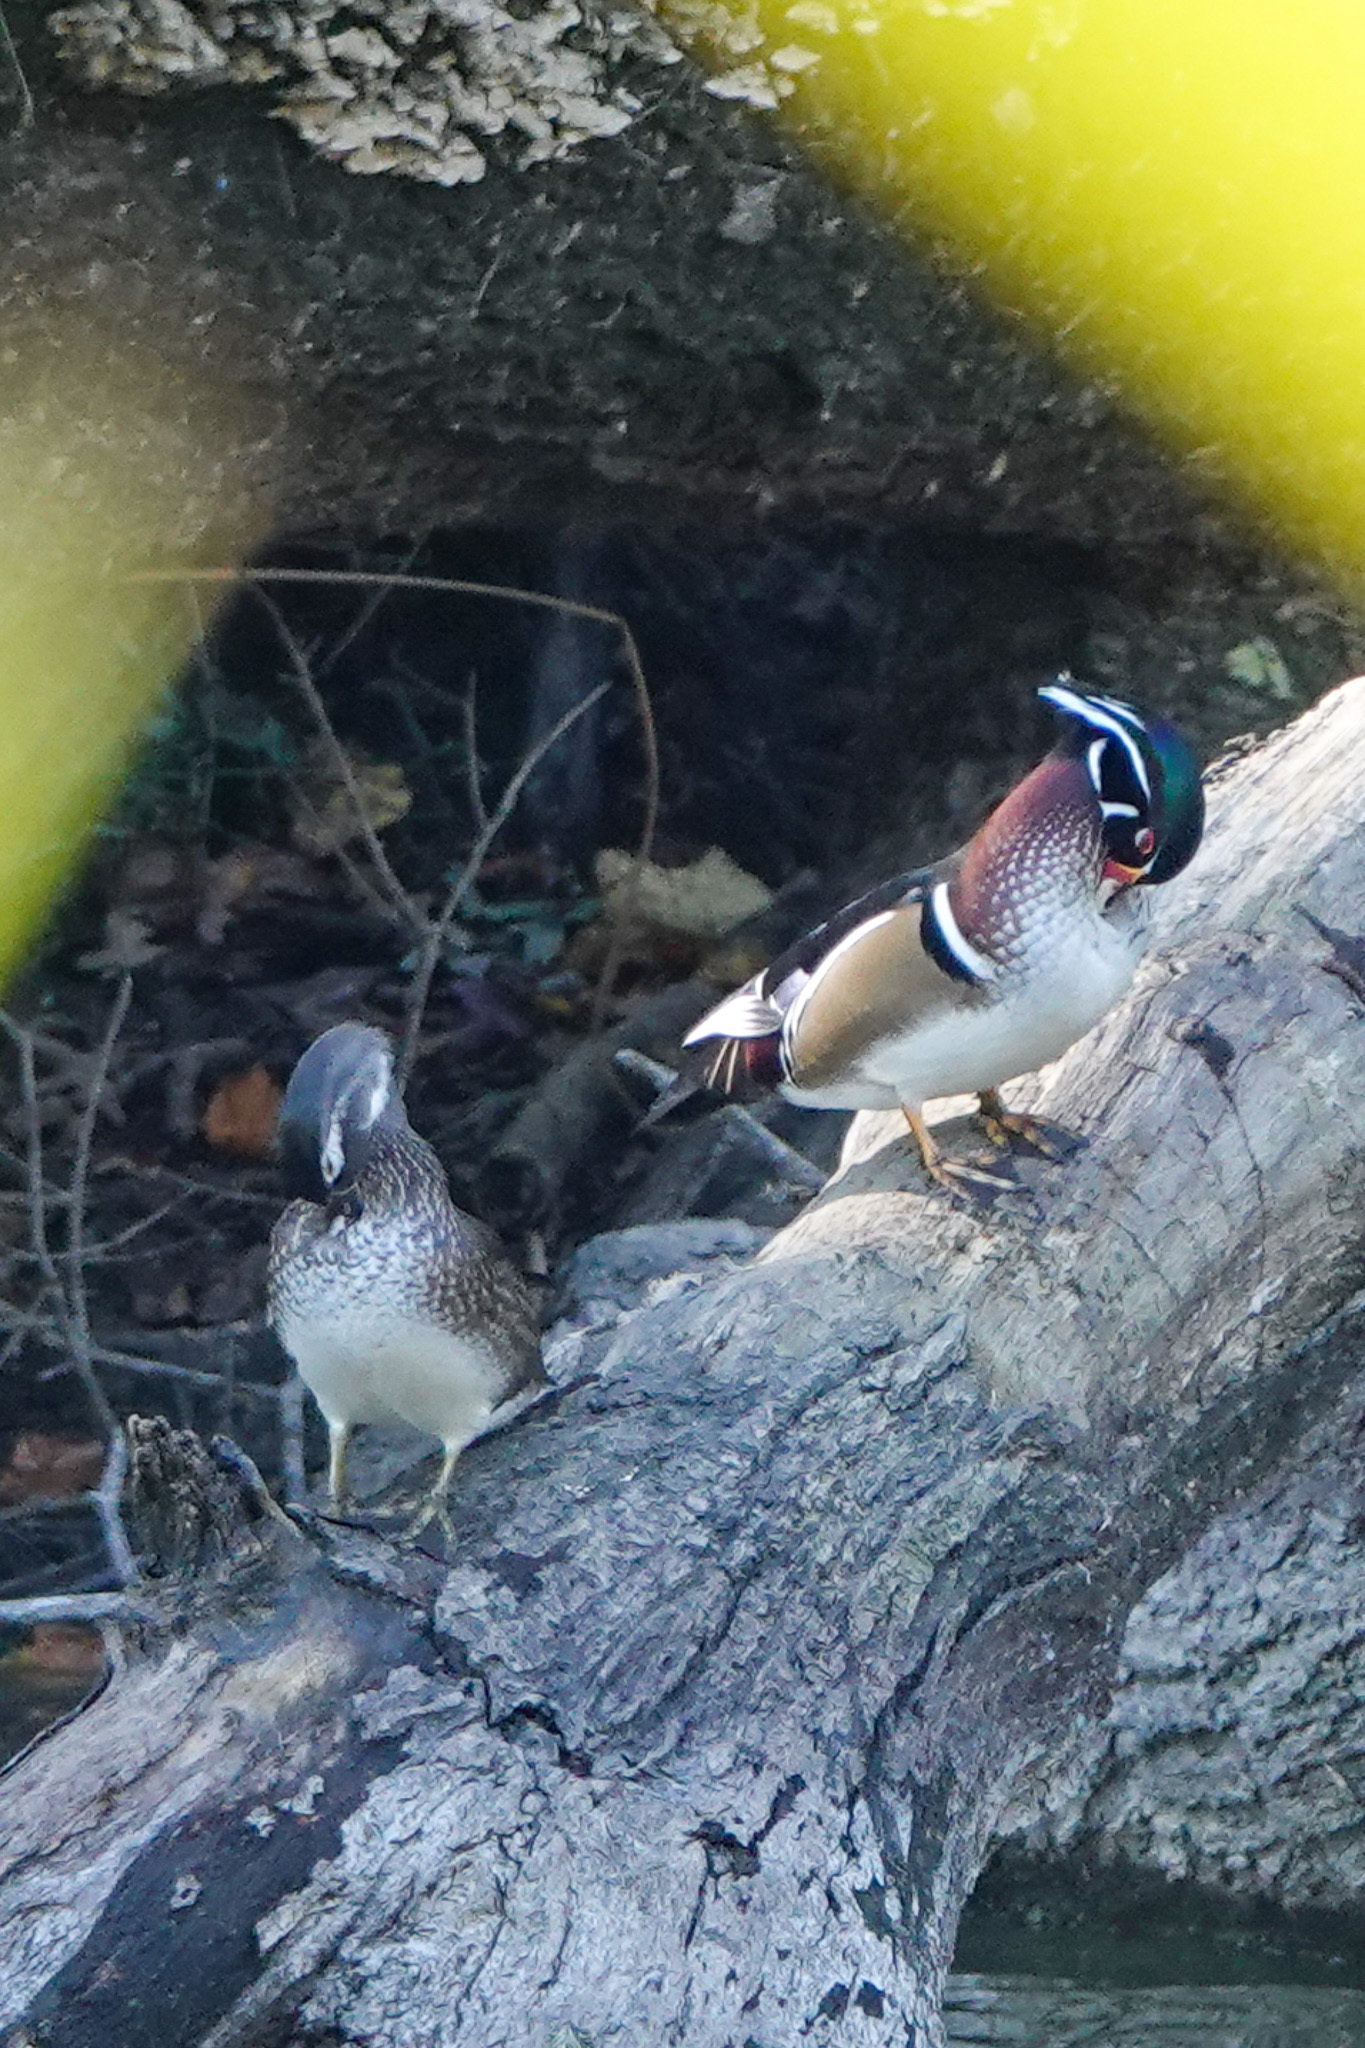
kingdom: Animalia
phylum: Chordata
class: Aves
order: Anseriformes
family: Anatidae
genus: Aix
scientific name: Aix sponsa
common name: Wood duck
